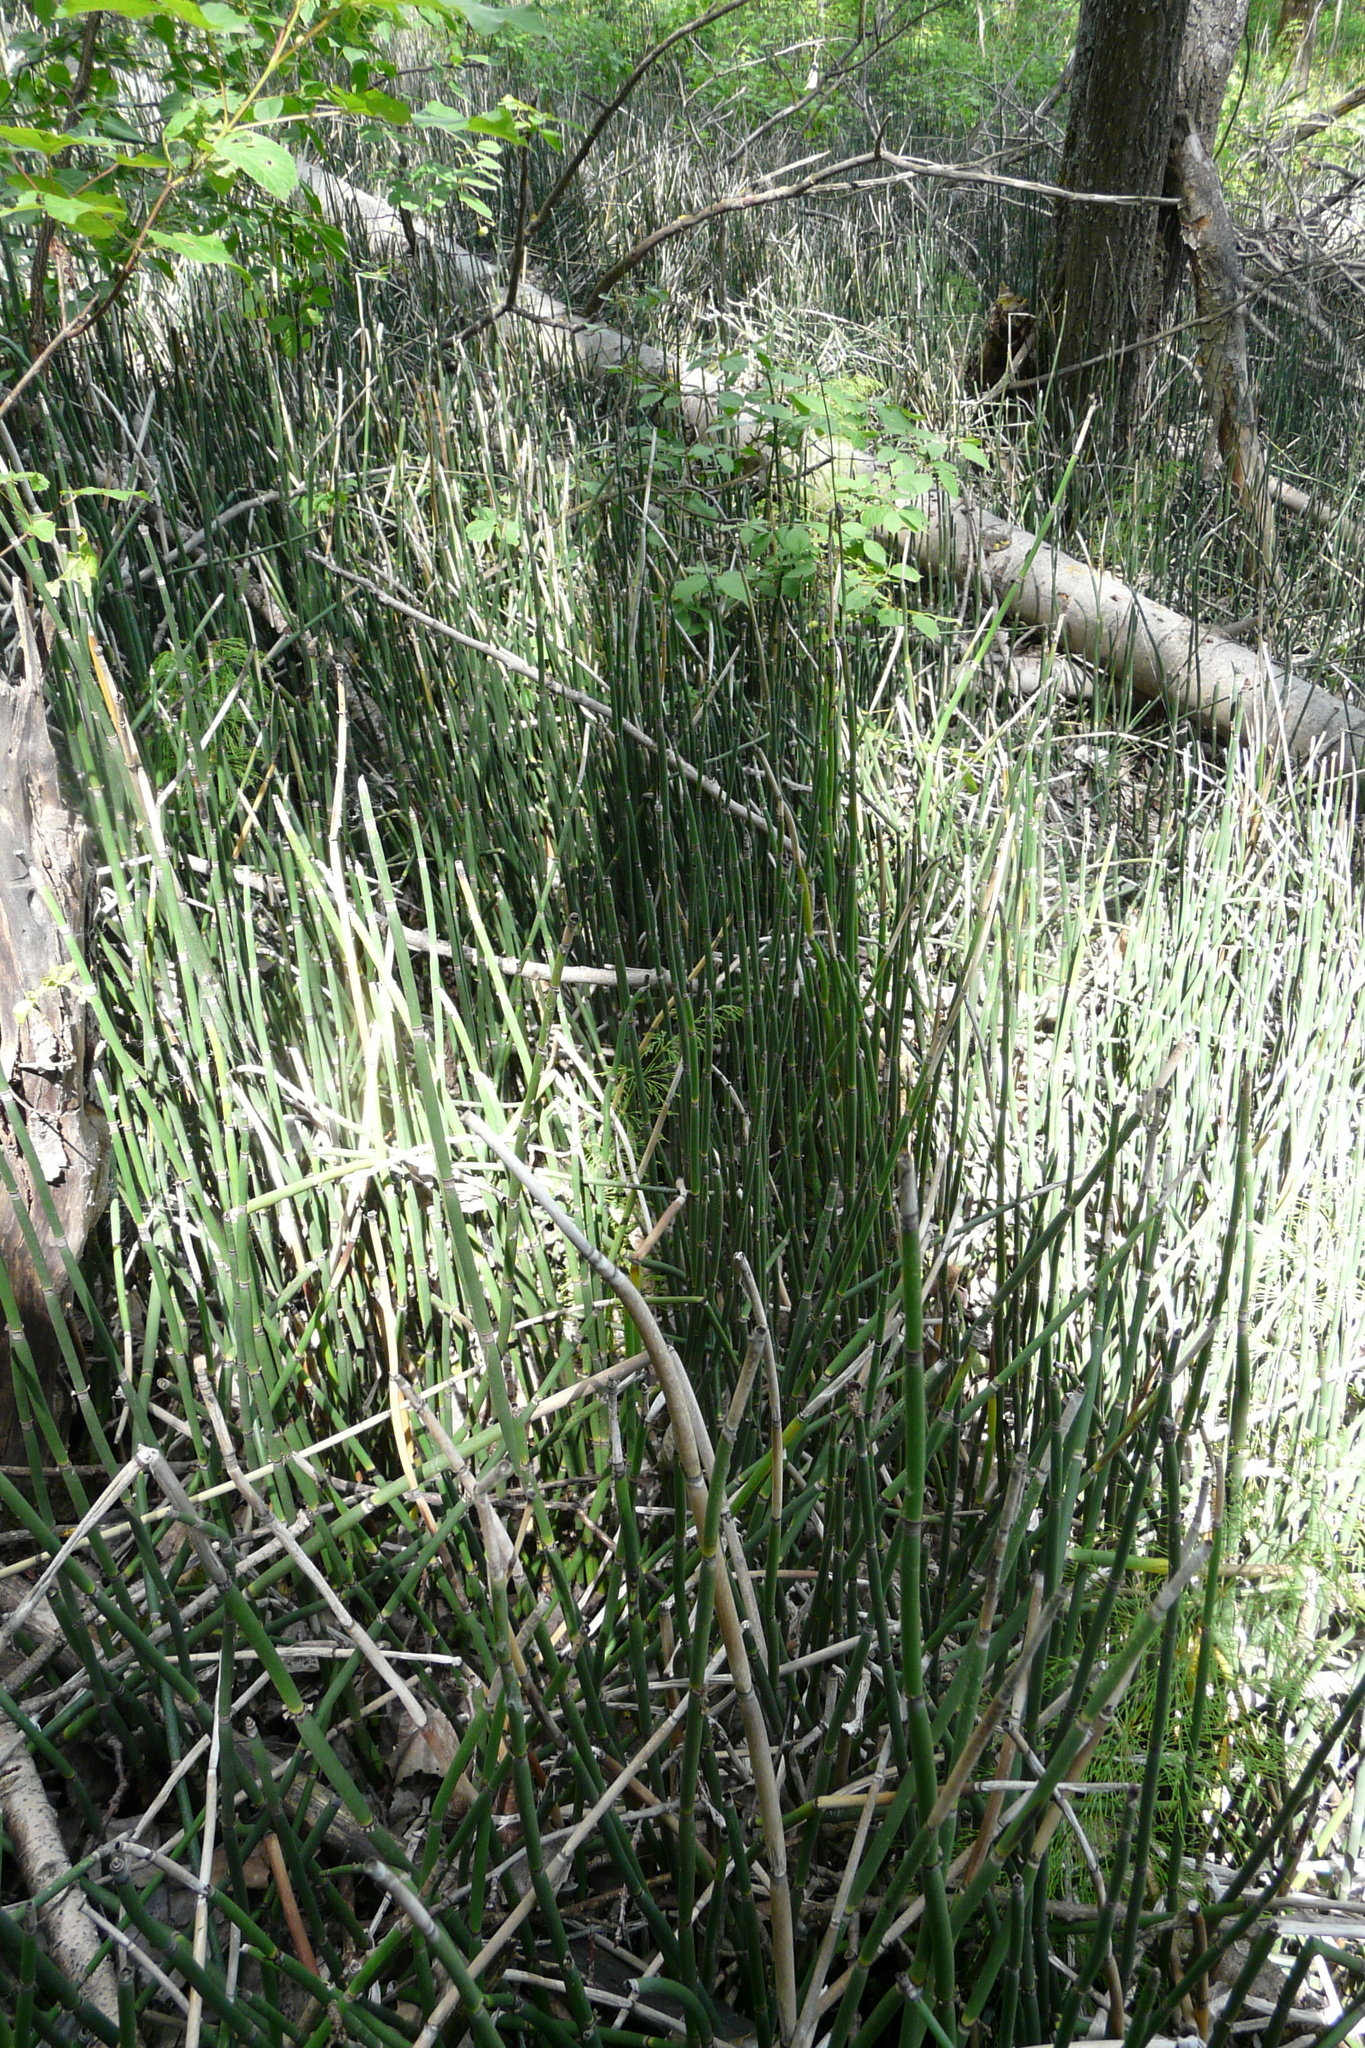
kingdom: Plantae
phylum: Tracheophyta
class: Polypodiopsida
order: Equisetales
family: Equisetaceae
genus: Equisetum
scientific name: Equisetum hyemale
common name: Rough horsetail
